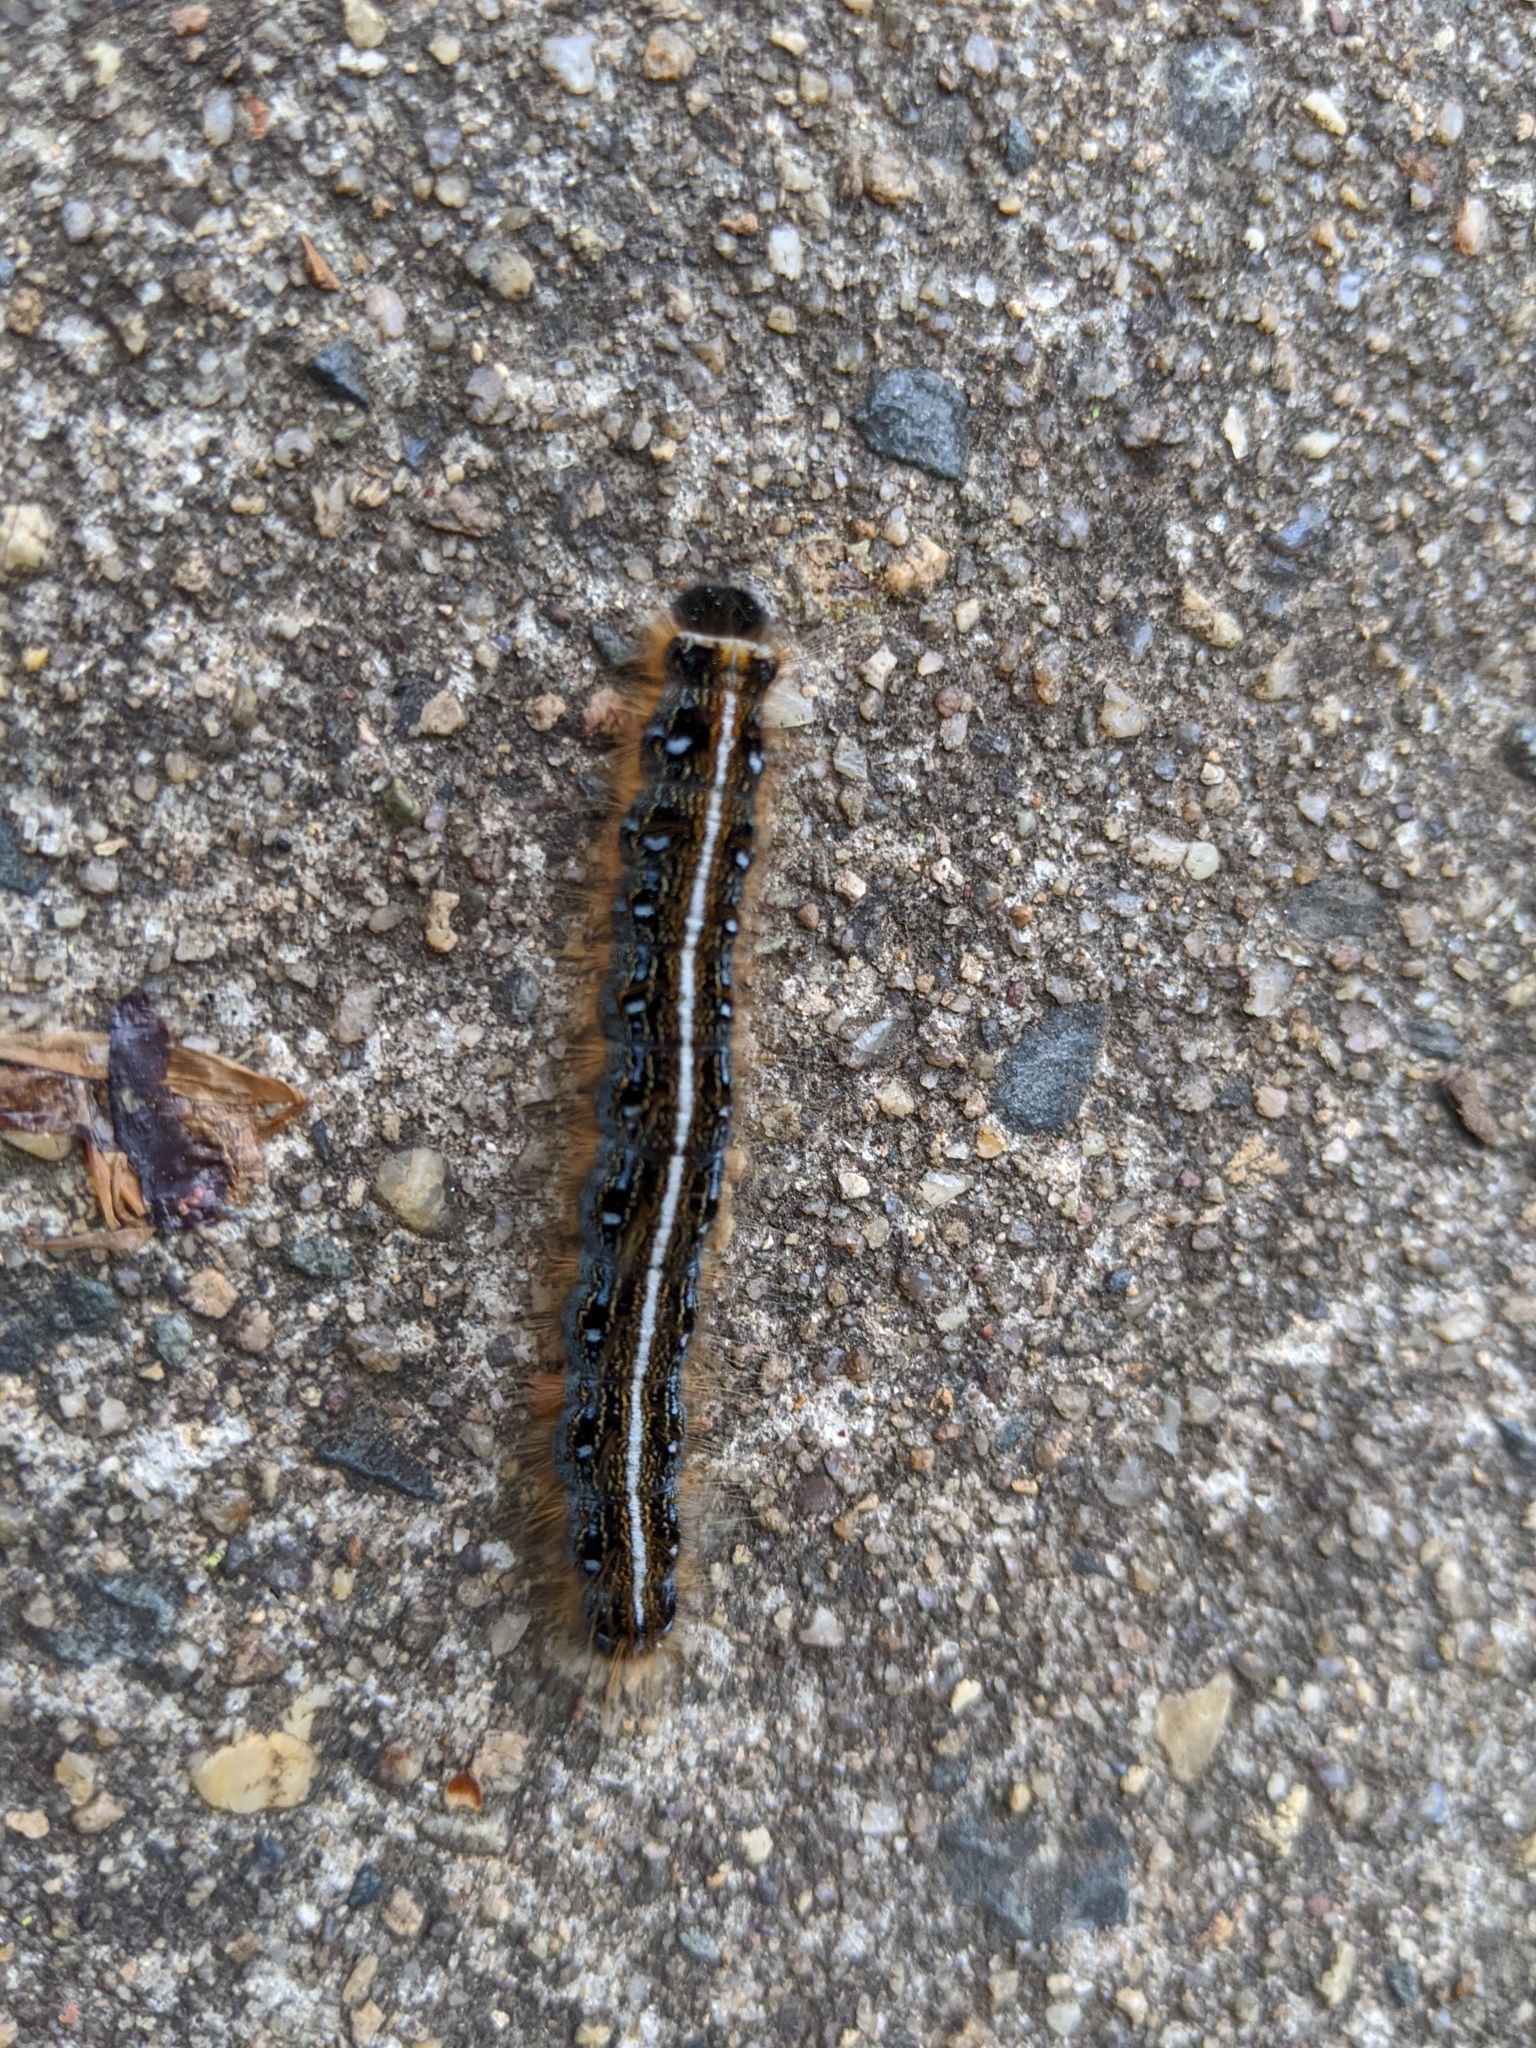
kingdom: Animalia
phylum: Arthropoda
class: Insecta
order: Lepidoptera
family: Lasiocampidae
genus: Malacosoma
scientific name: Malacosoma americana
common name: Eastern tent caterpillar moth
